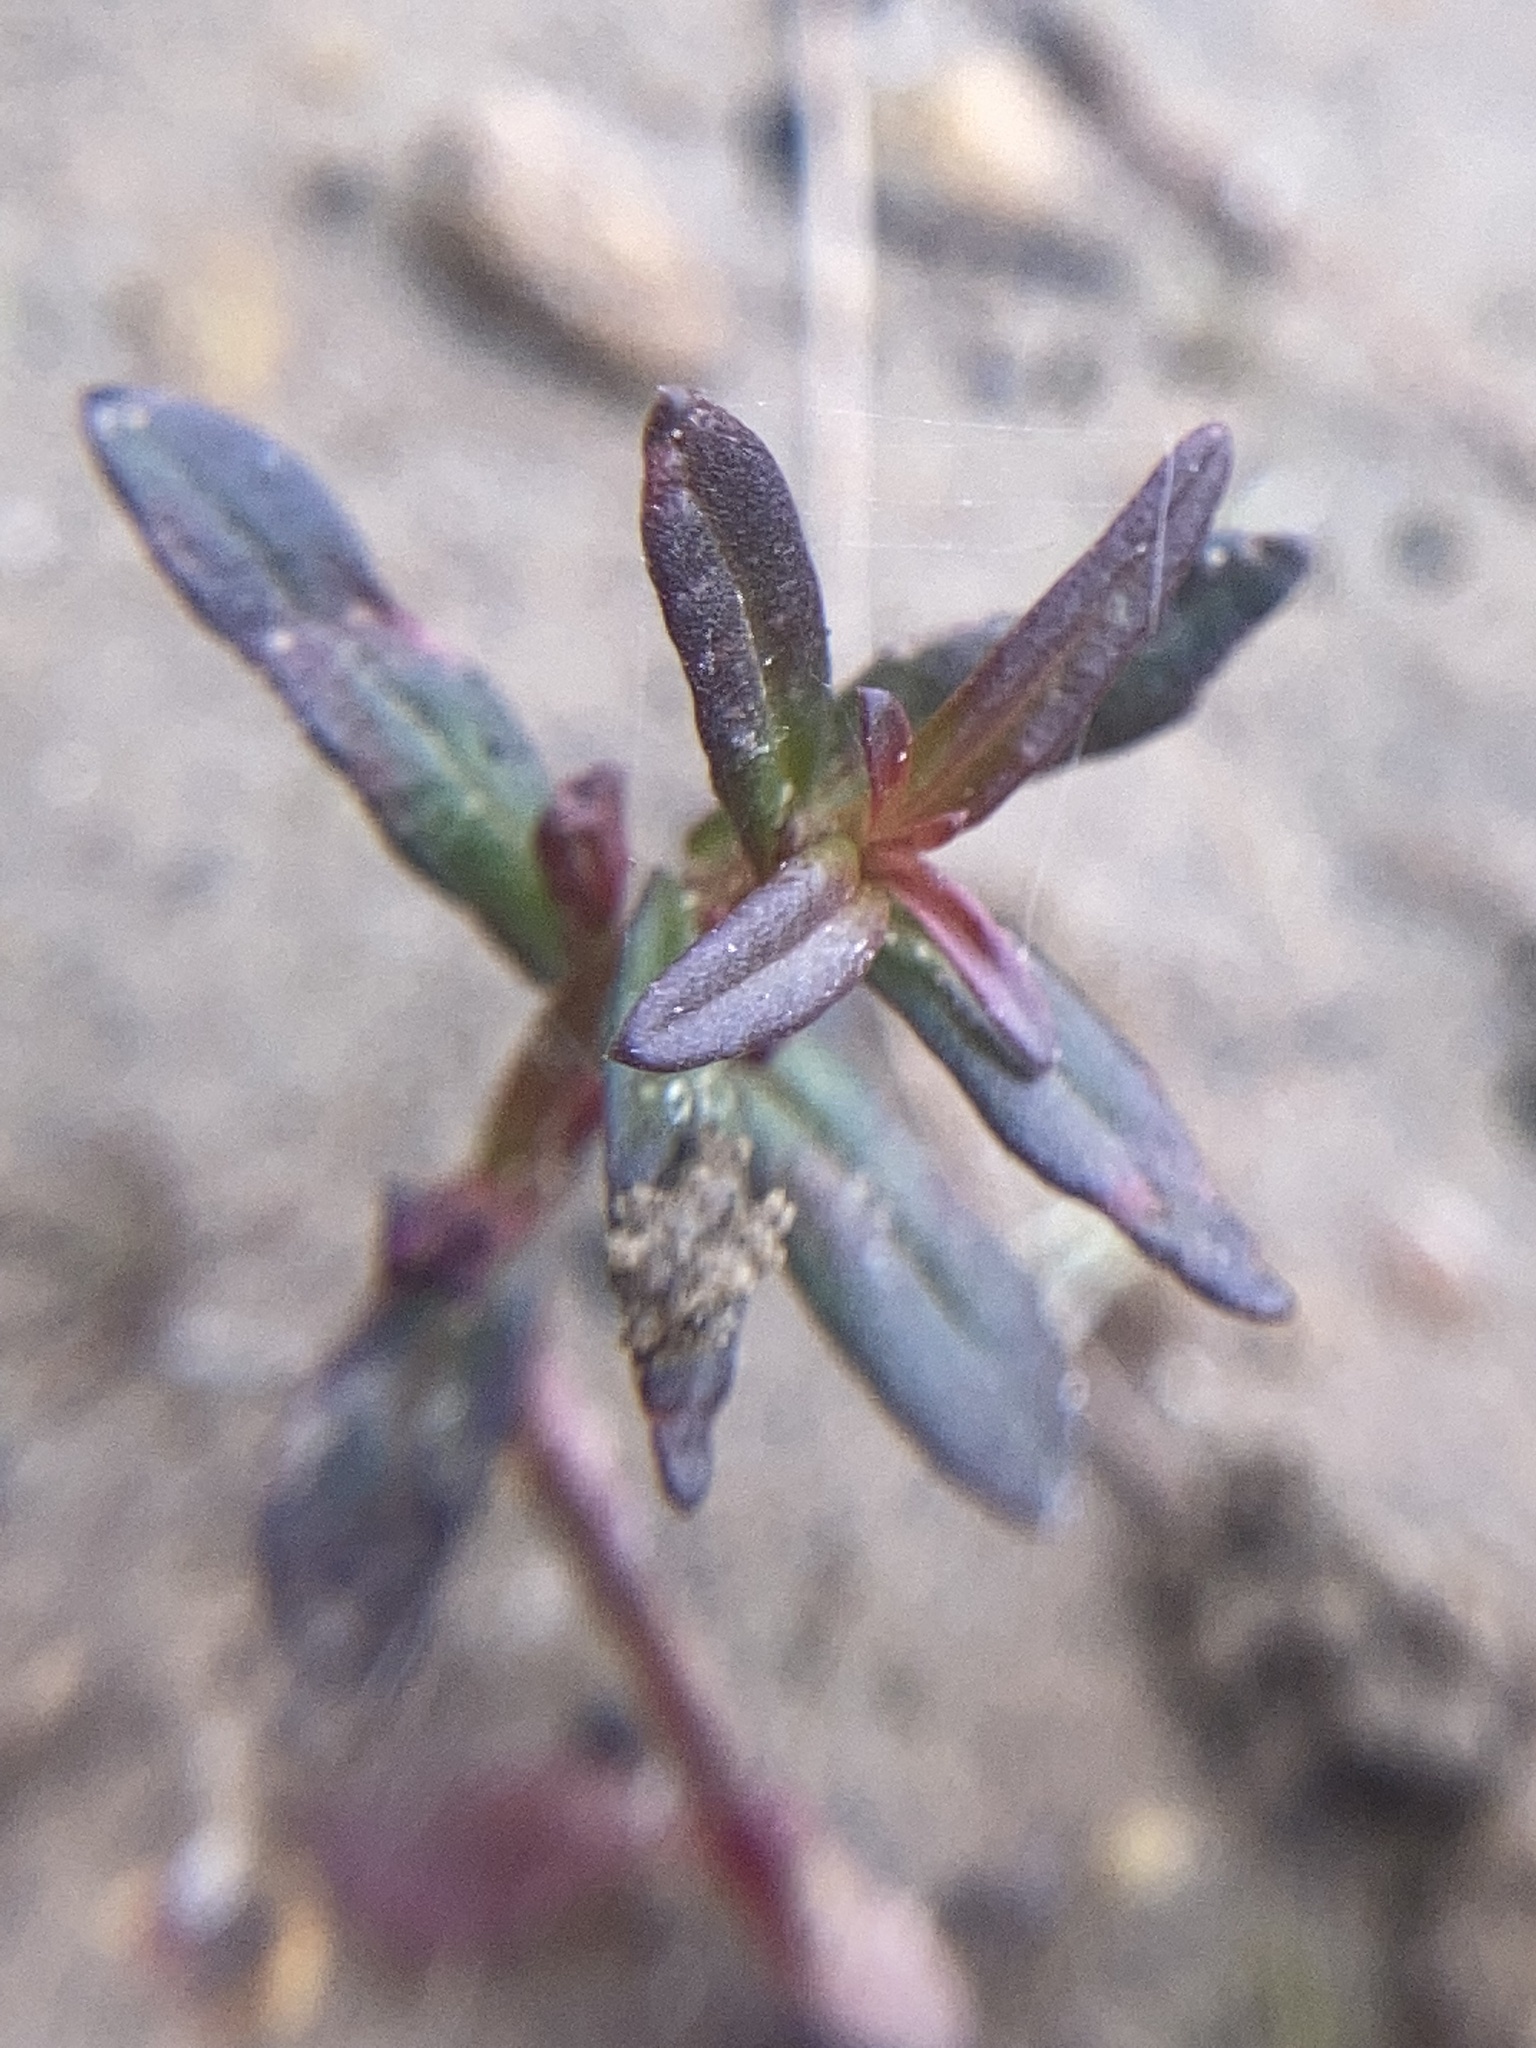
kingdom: Plantae
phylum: Tracheophyta
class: Magnoliopsida
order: Myrtales
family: Lythraceae
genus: Ammannia
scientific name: Ammannia latifolia
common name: Toothcup
